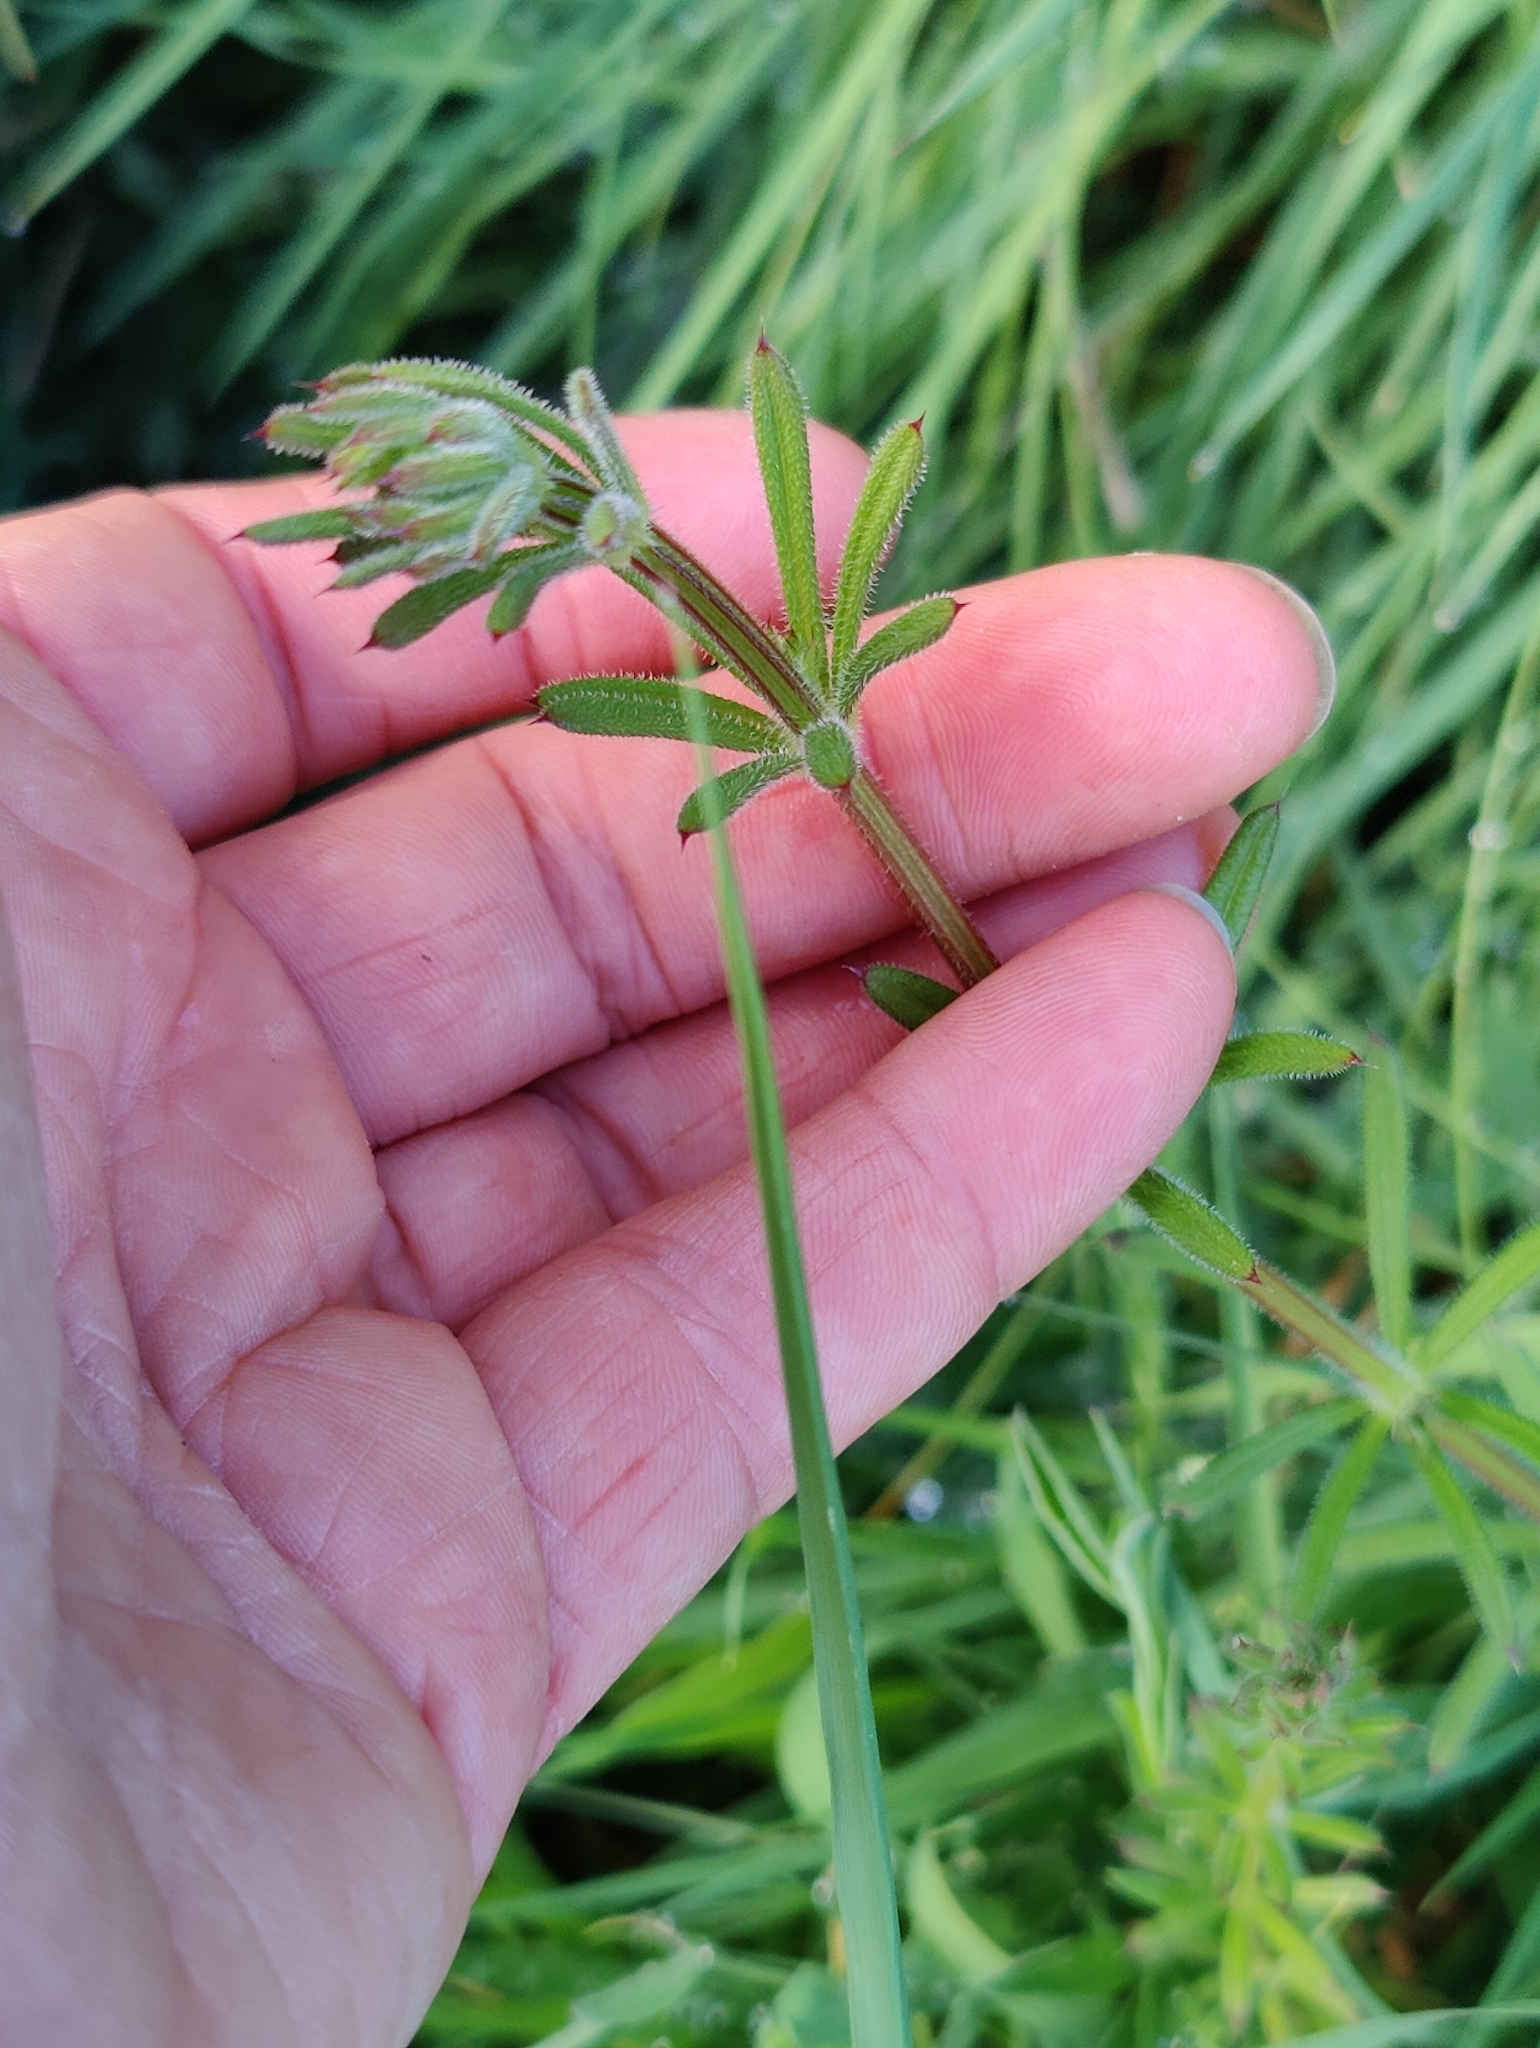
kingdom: Plantae
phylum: Tracheophyta
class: Magnoliopsida
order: Gentianales
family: Rubiaceae
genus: Galium
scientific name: Galium aparine
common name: Cleavers
